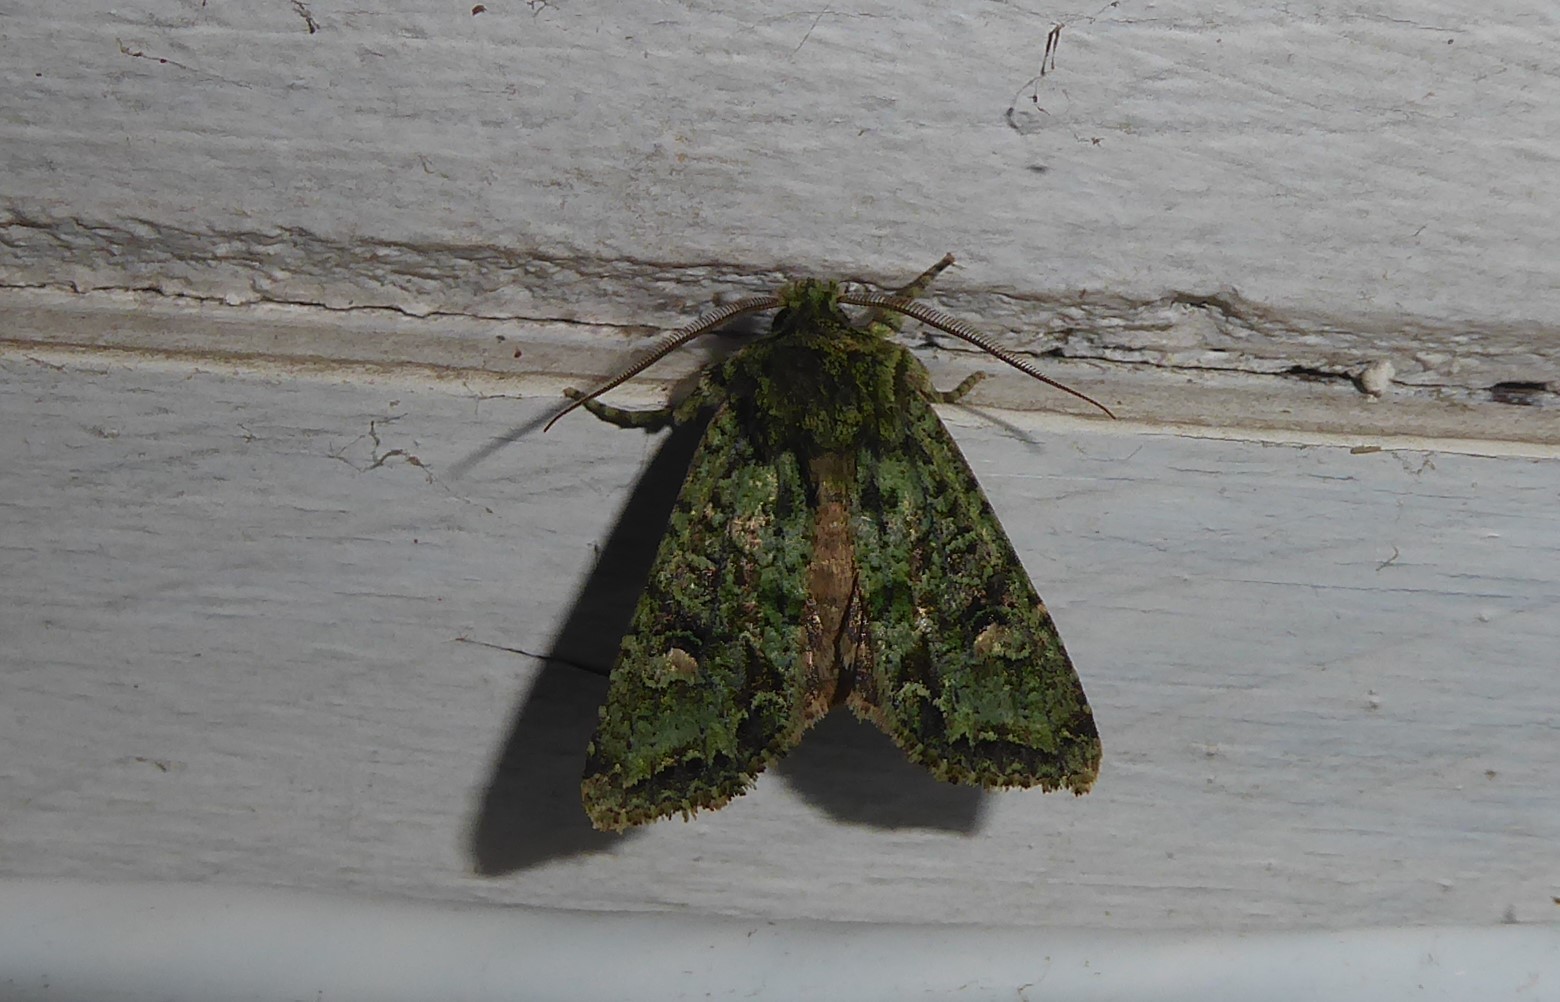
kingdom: Animalia
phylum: Arthropoda
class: Insecta
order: Lepidoptera
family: Noctuidae
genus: Ichneutica
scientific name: Ichneutica
